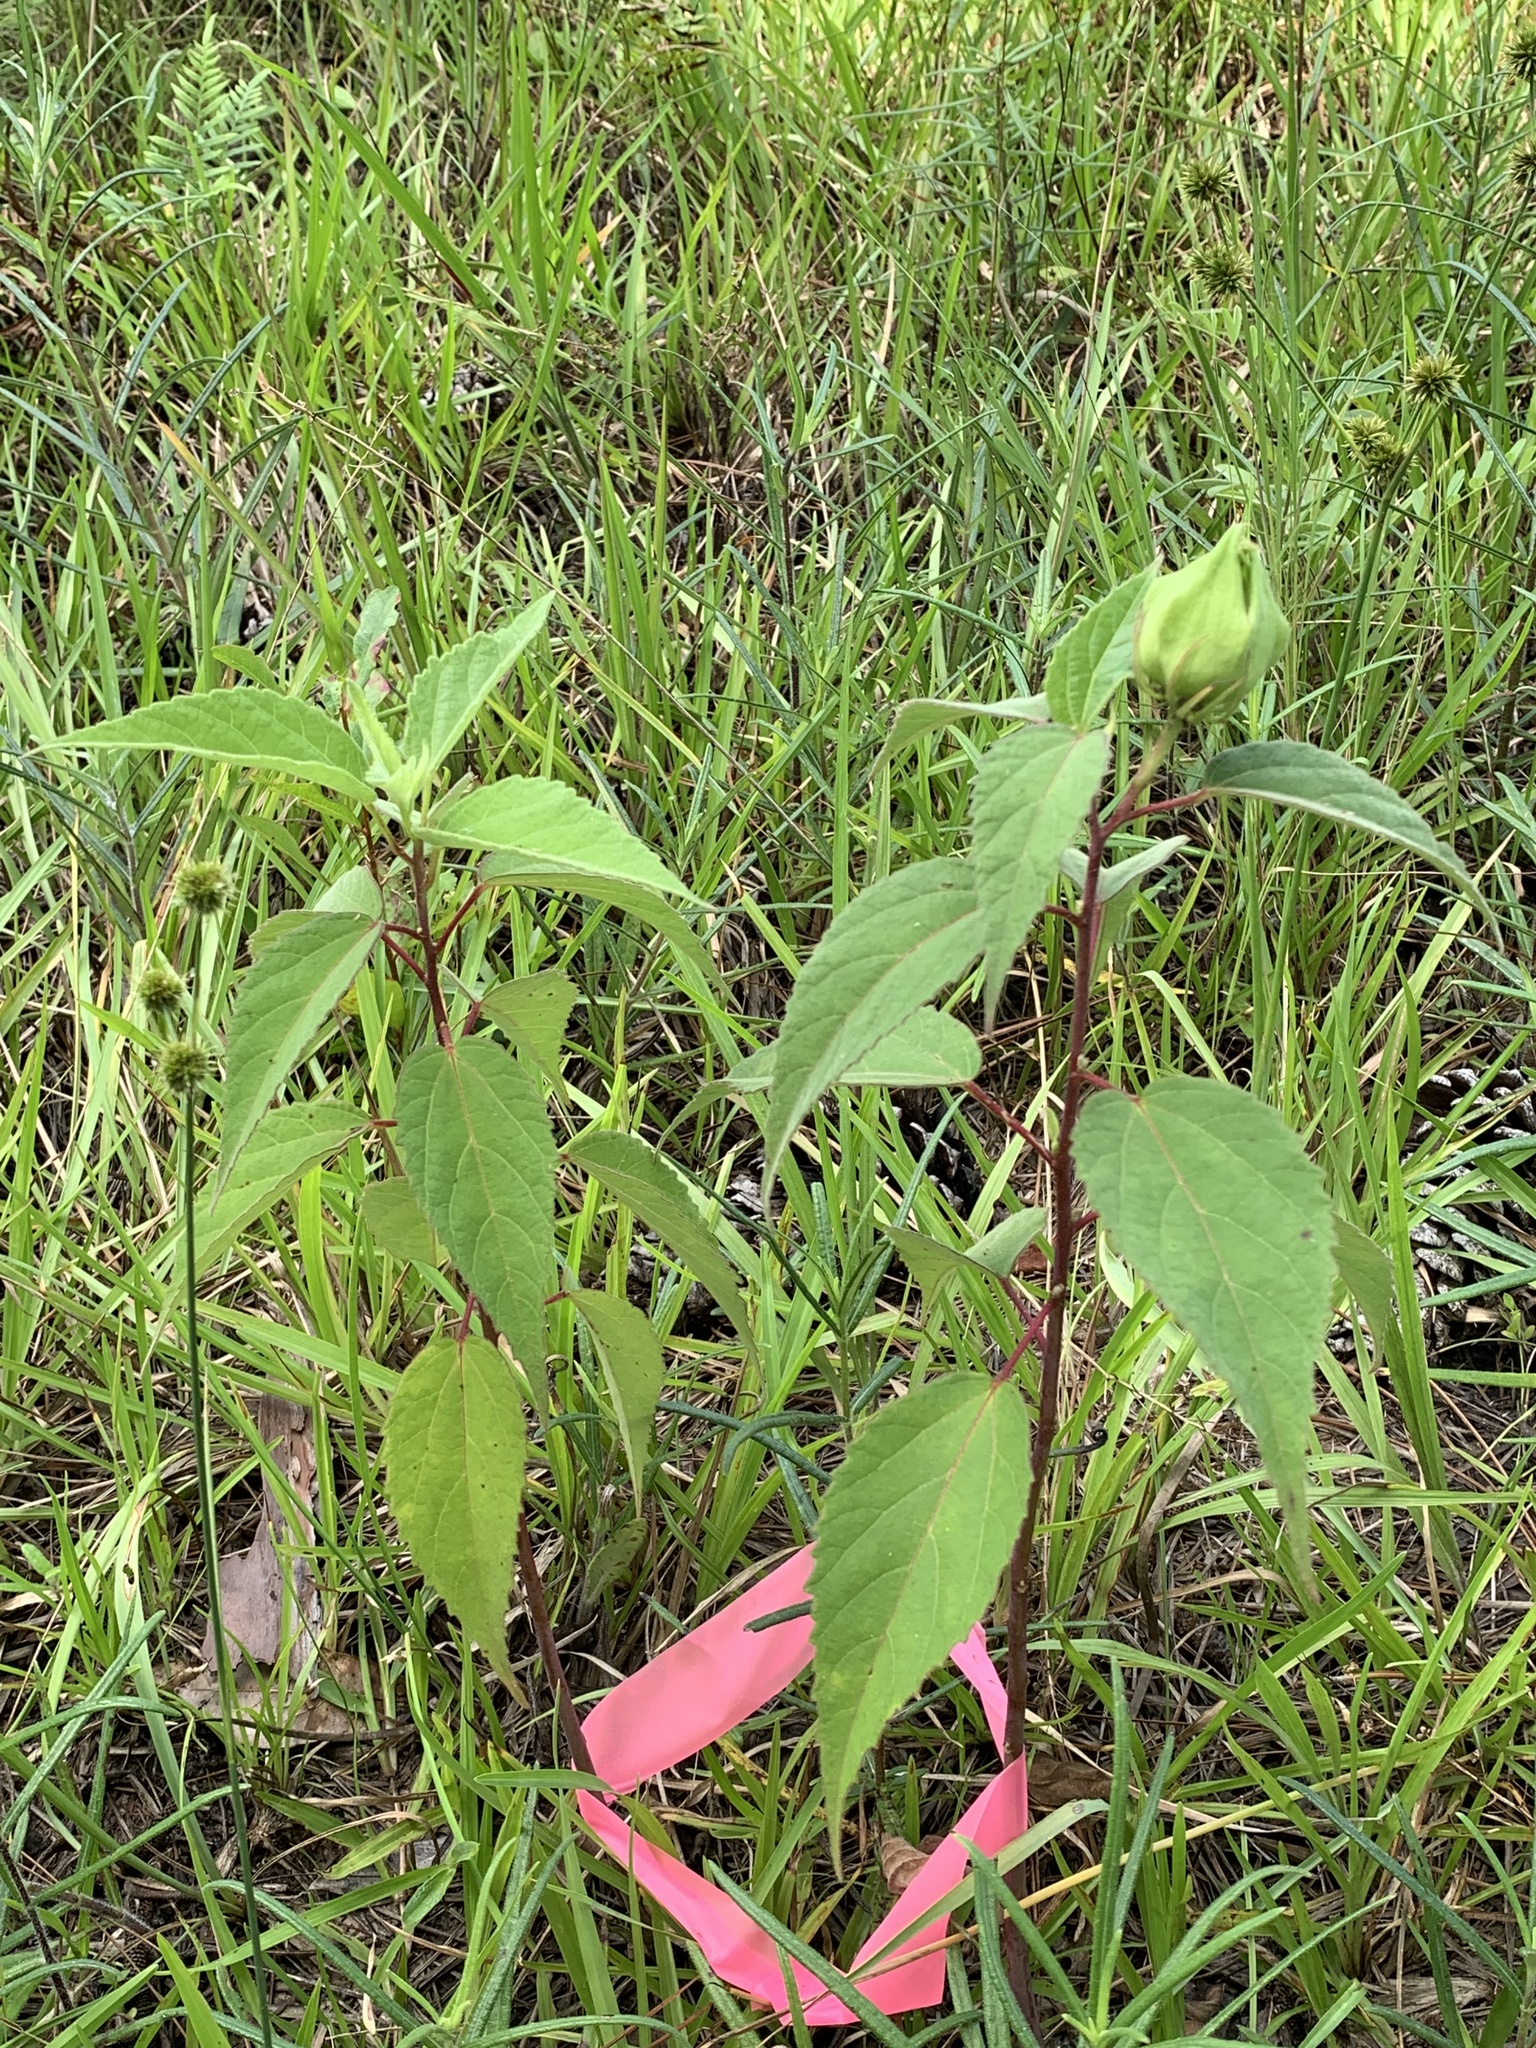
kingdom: Plantae
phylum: Tracheophyta
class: Magnoliopsida
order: Malvales
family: Malvaceae
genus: Hibiscus
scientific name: Hibiscus moscheutos
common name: Common rose-mallow
